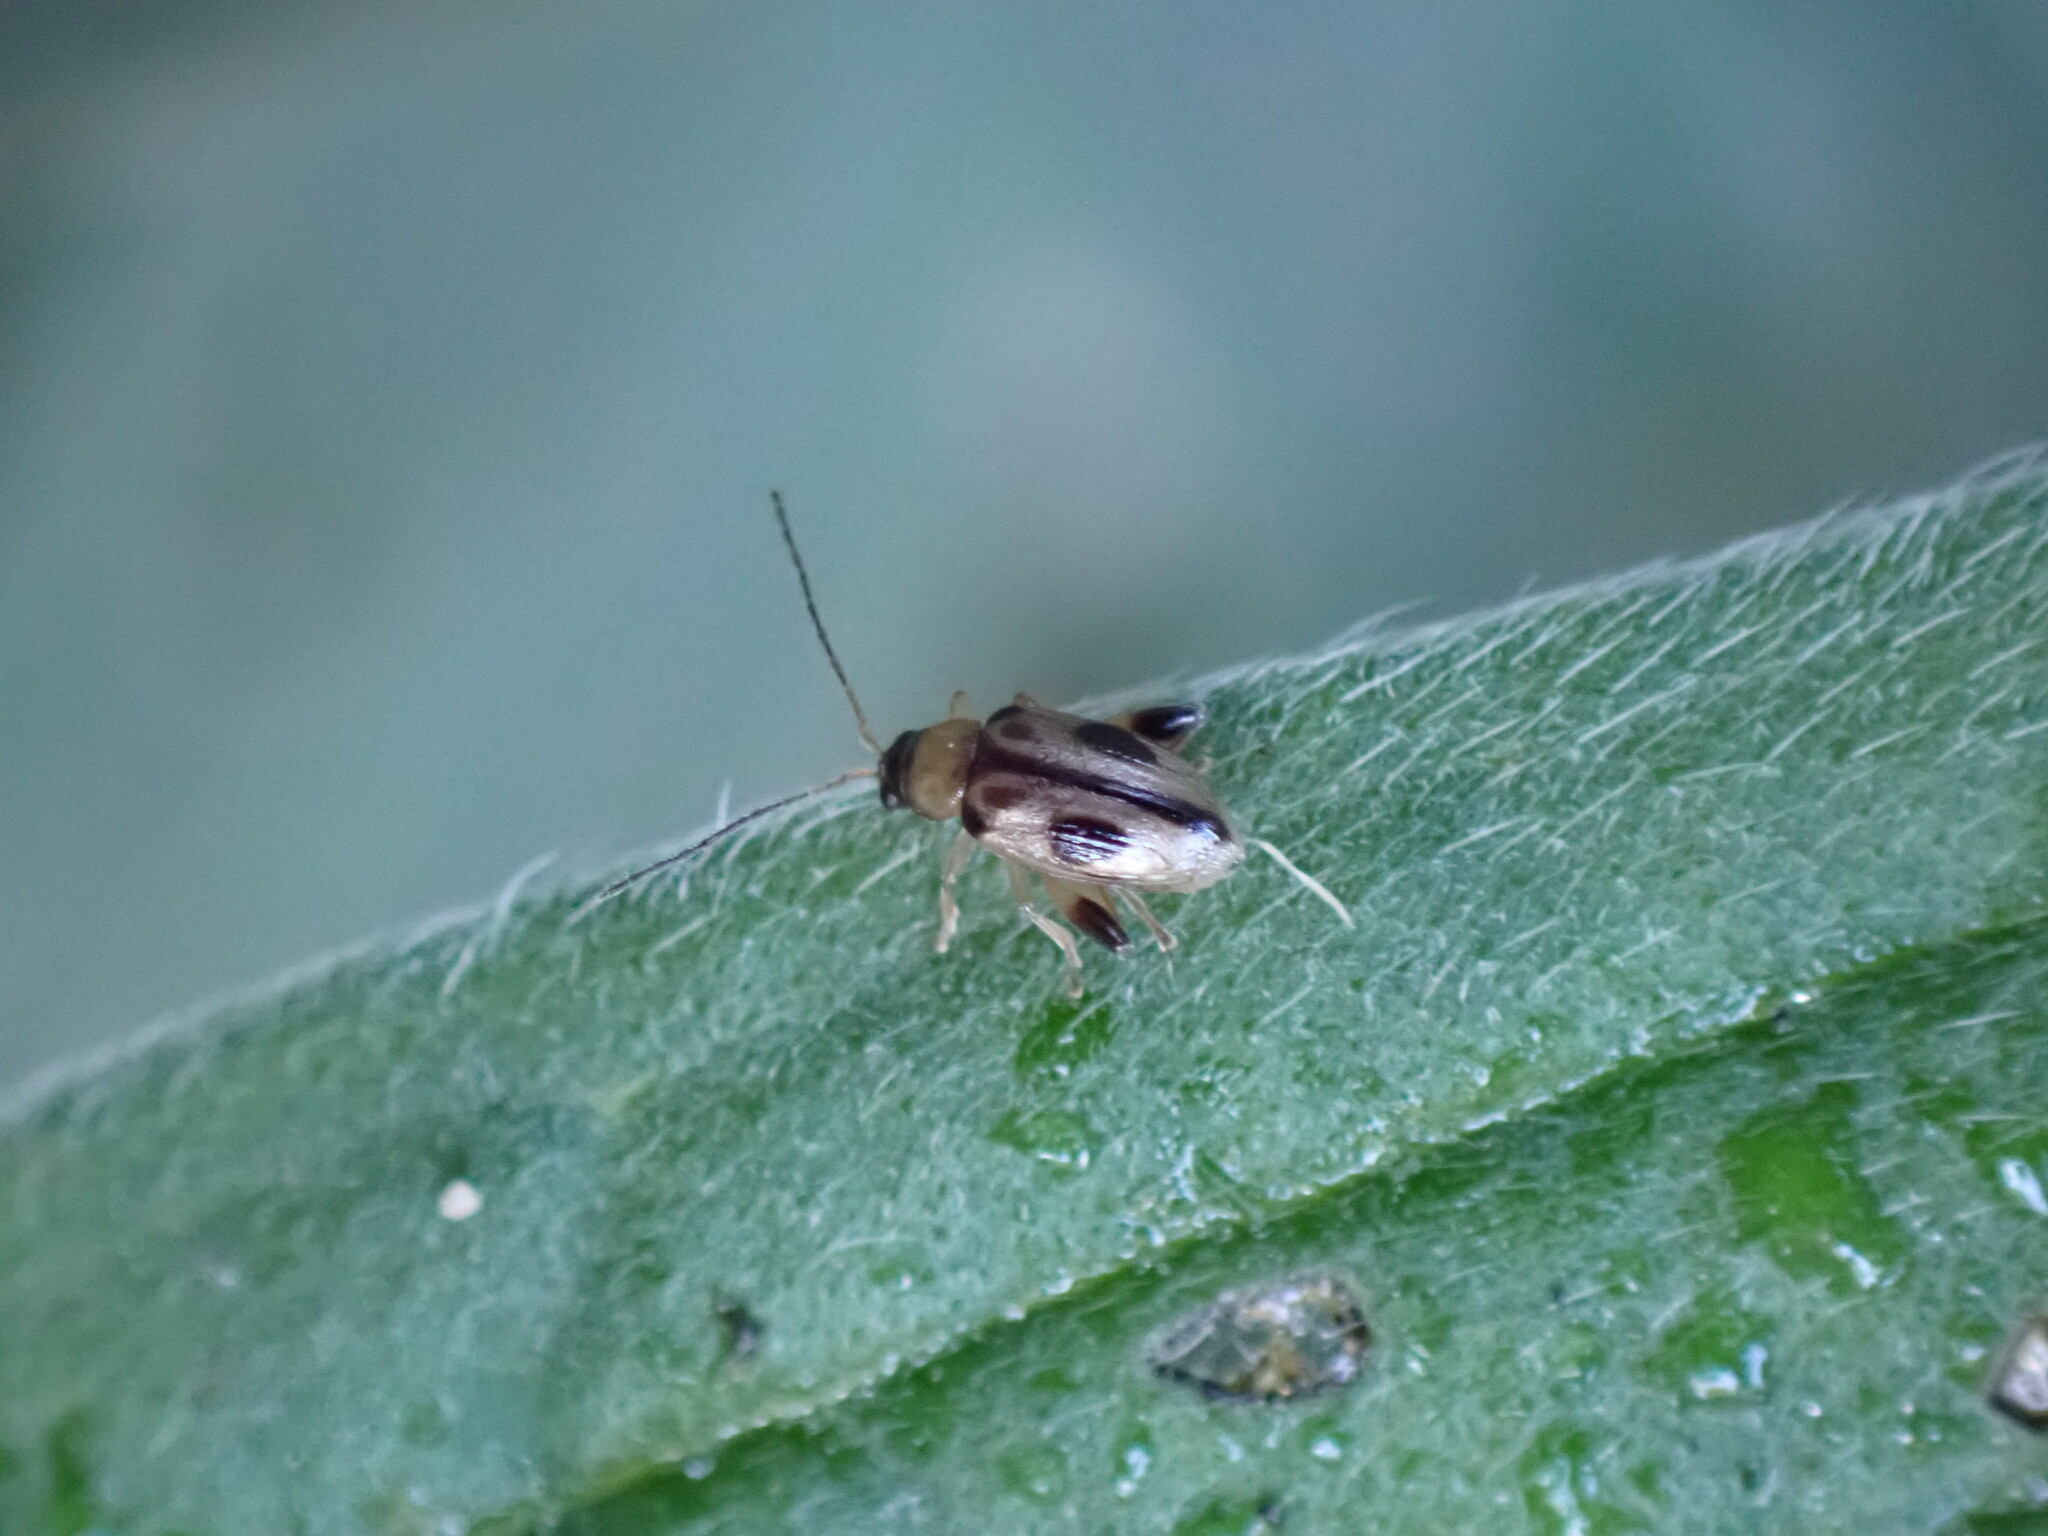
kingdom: Animalia
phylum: Arthropoda
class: Insecta
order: Coleoptera
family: Chrysomelidae
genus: Longitarsus
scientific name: Longitarsus persimilis
